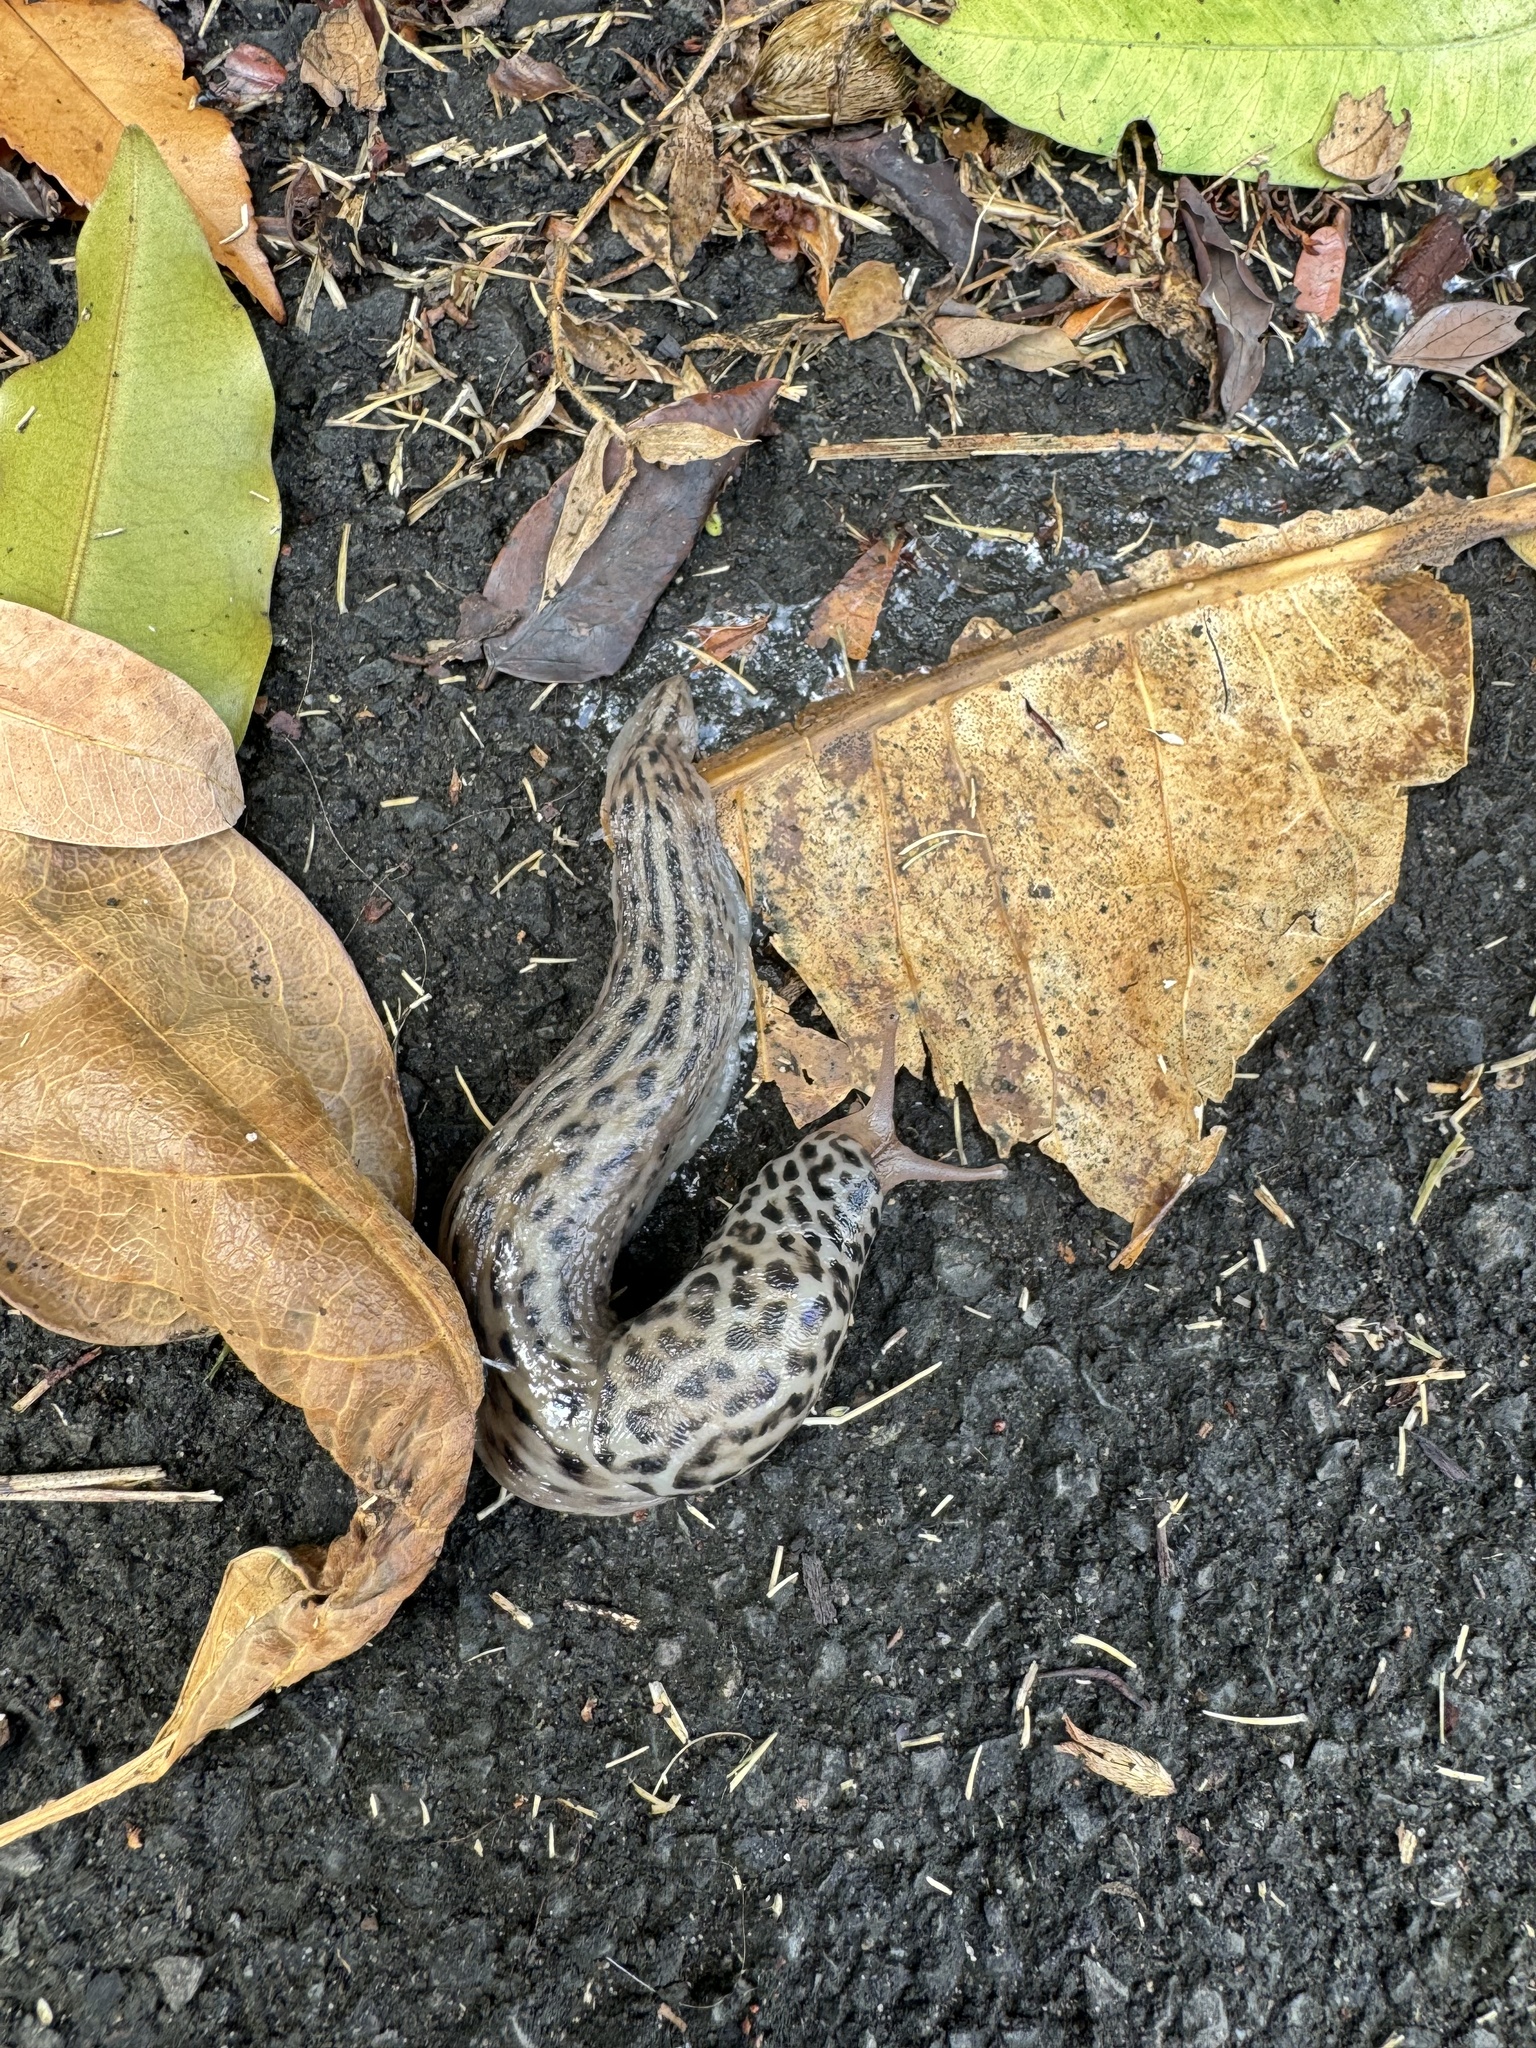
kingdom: Animalia
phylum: Mollusca
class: Gastropoda
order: Stylommatophora
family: Limacidae
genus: Limax
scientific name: Limax maximus
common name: Great grey slug
